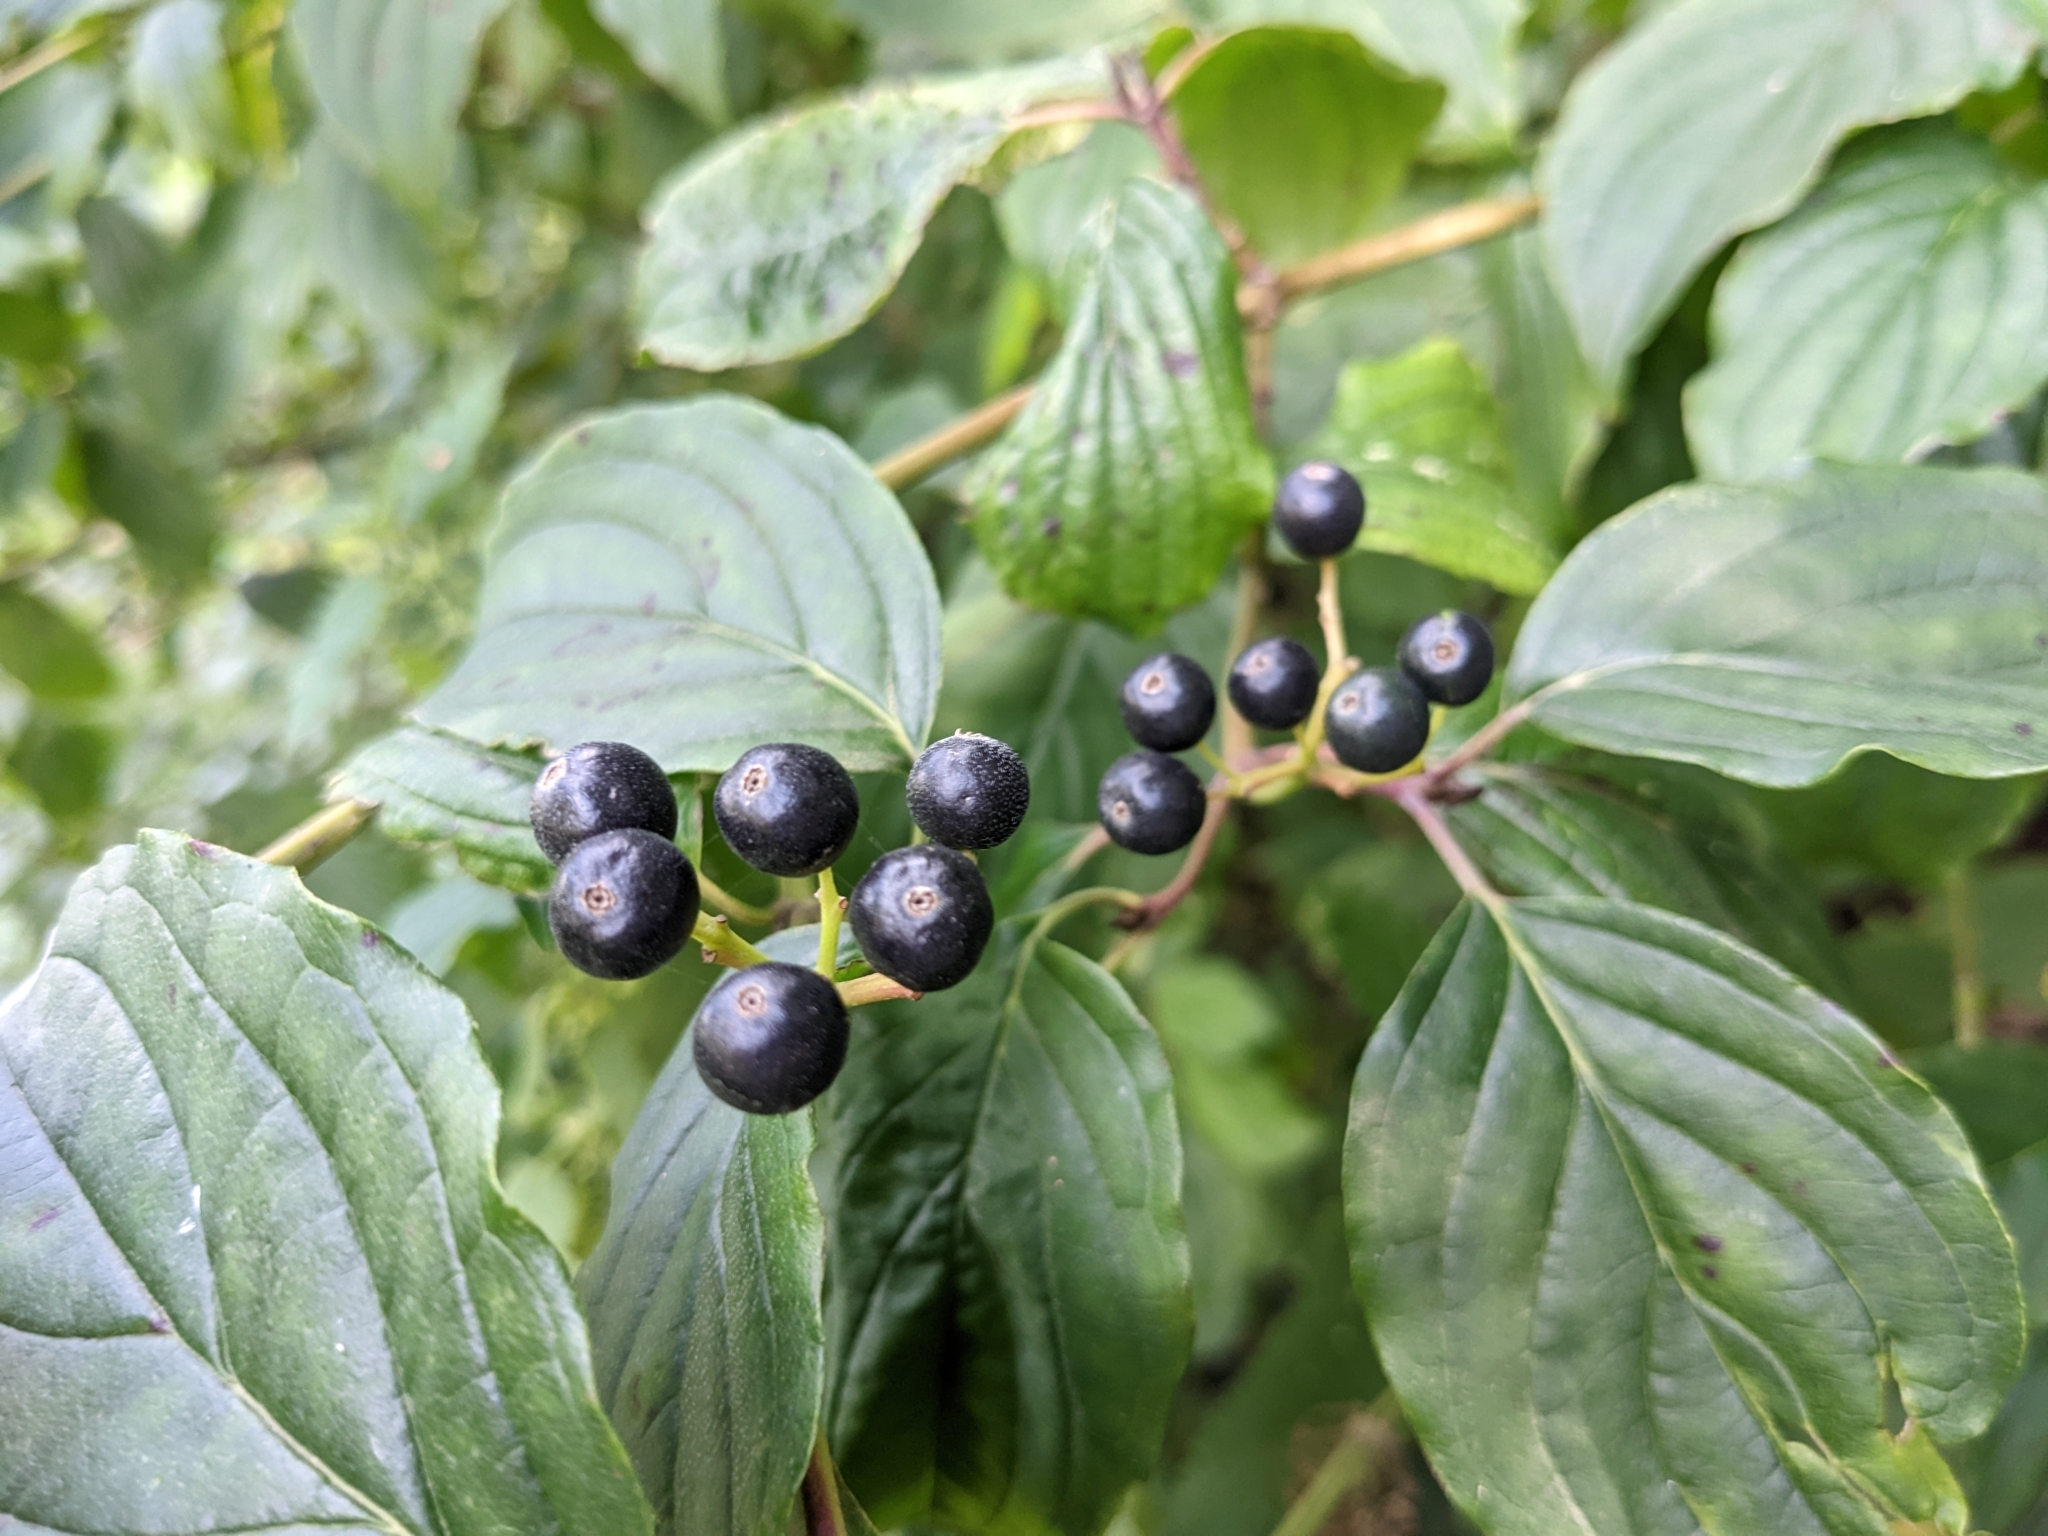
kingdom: Plantae
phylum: Tracheophyta
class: Magnoliopsida
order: Cornales
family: Cornaceae
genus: Cornus
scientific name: Cornus sanguinea
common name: Dogwood
